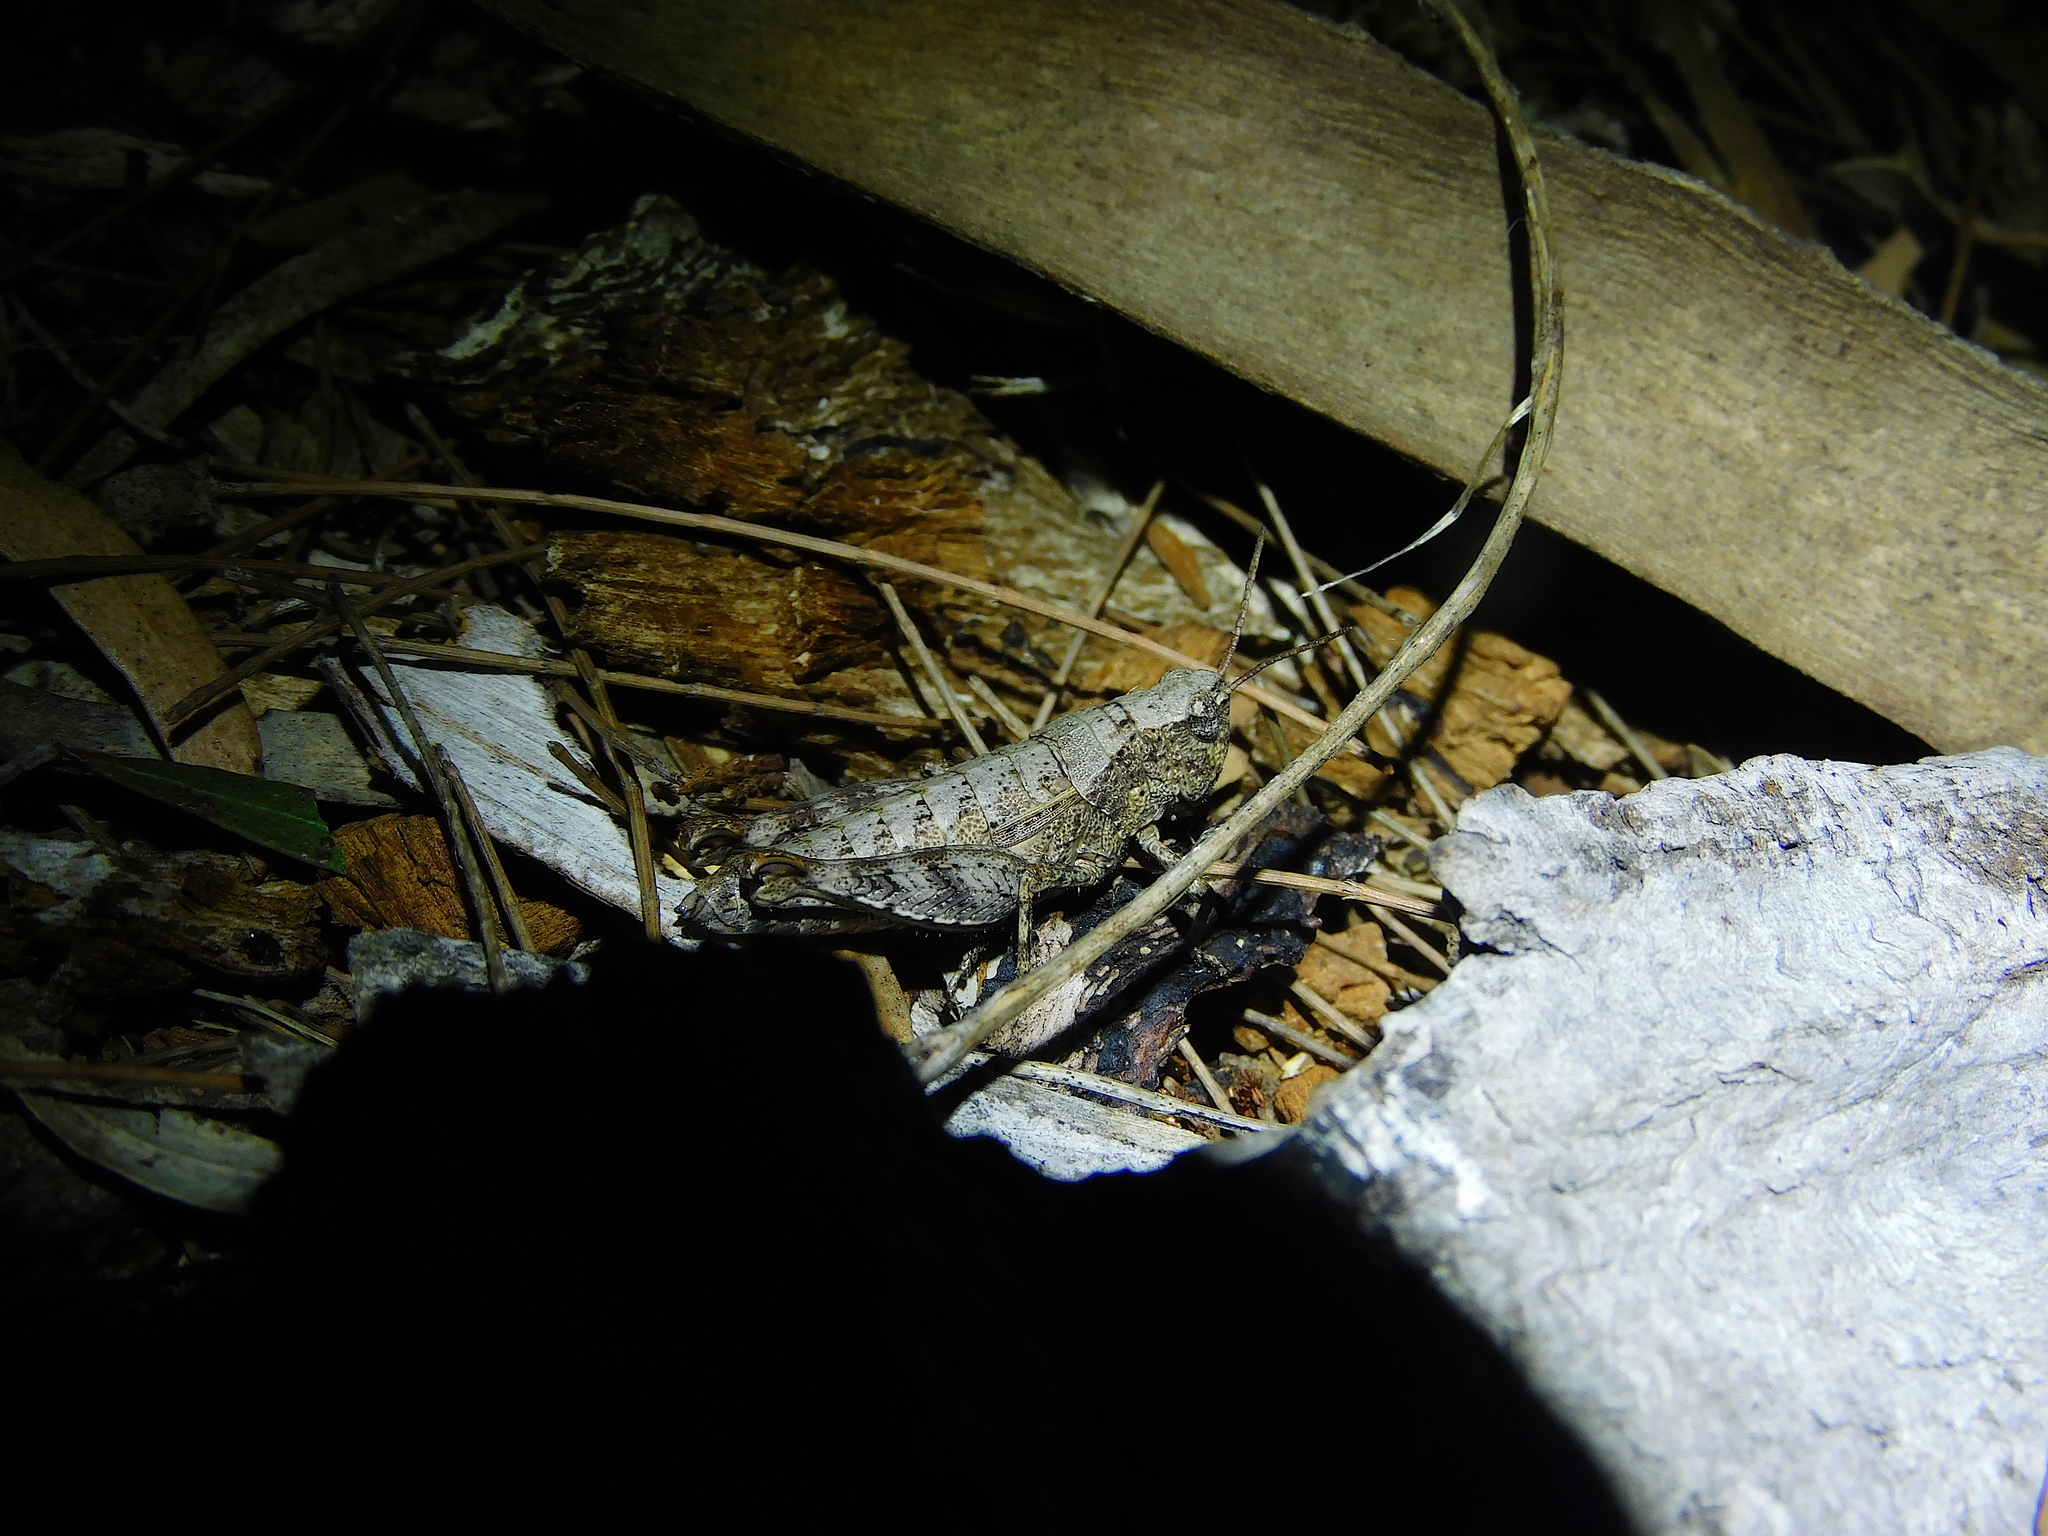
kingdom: Animalia
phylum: Arthropoda
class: Insecta
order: Orthoptera
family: Acrididae
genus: Tasmaniacris
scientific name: Tasmaniacris tasmaniensis
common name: Tasmanian grasshopper
